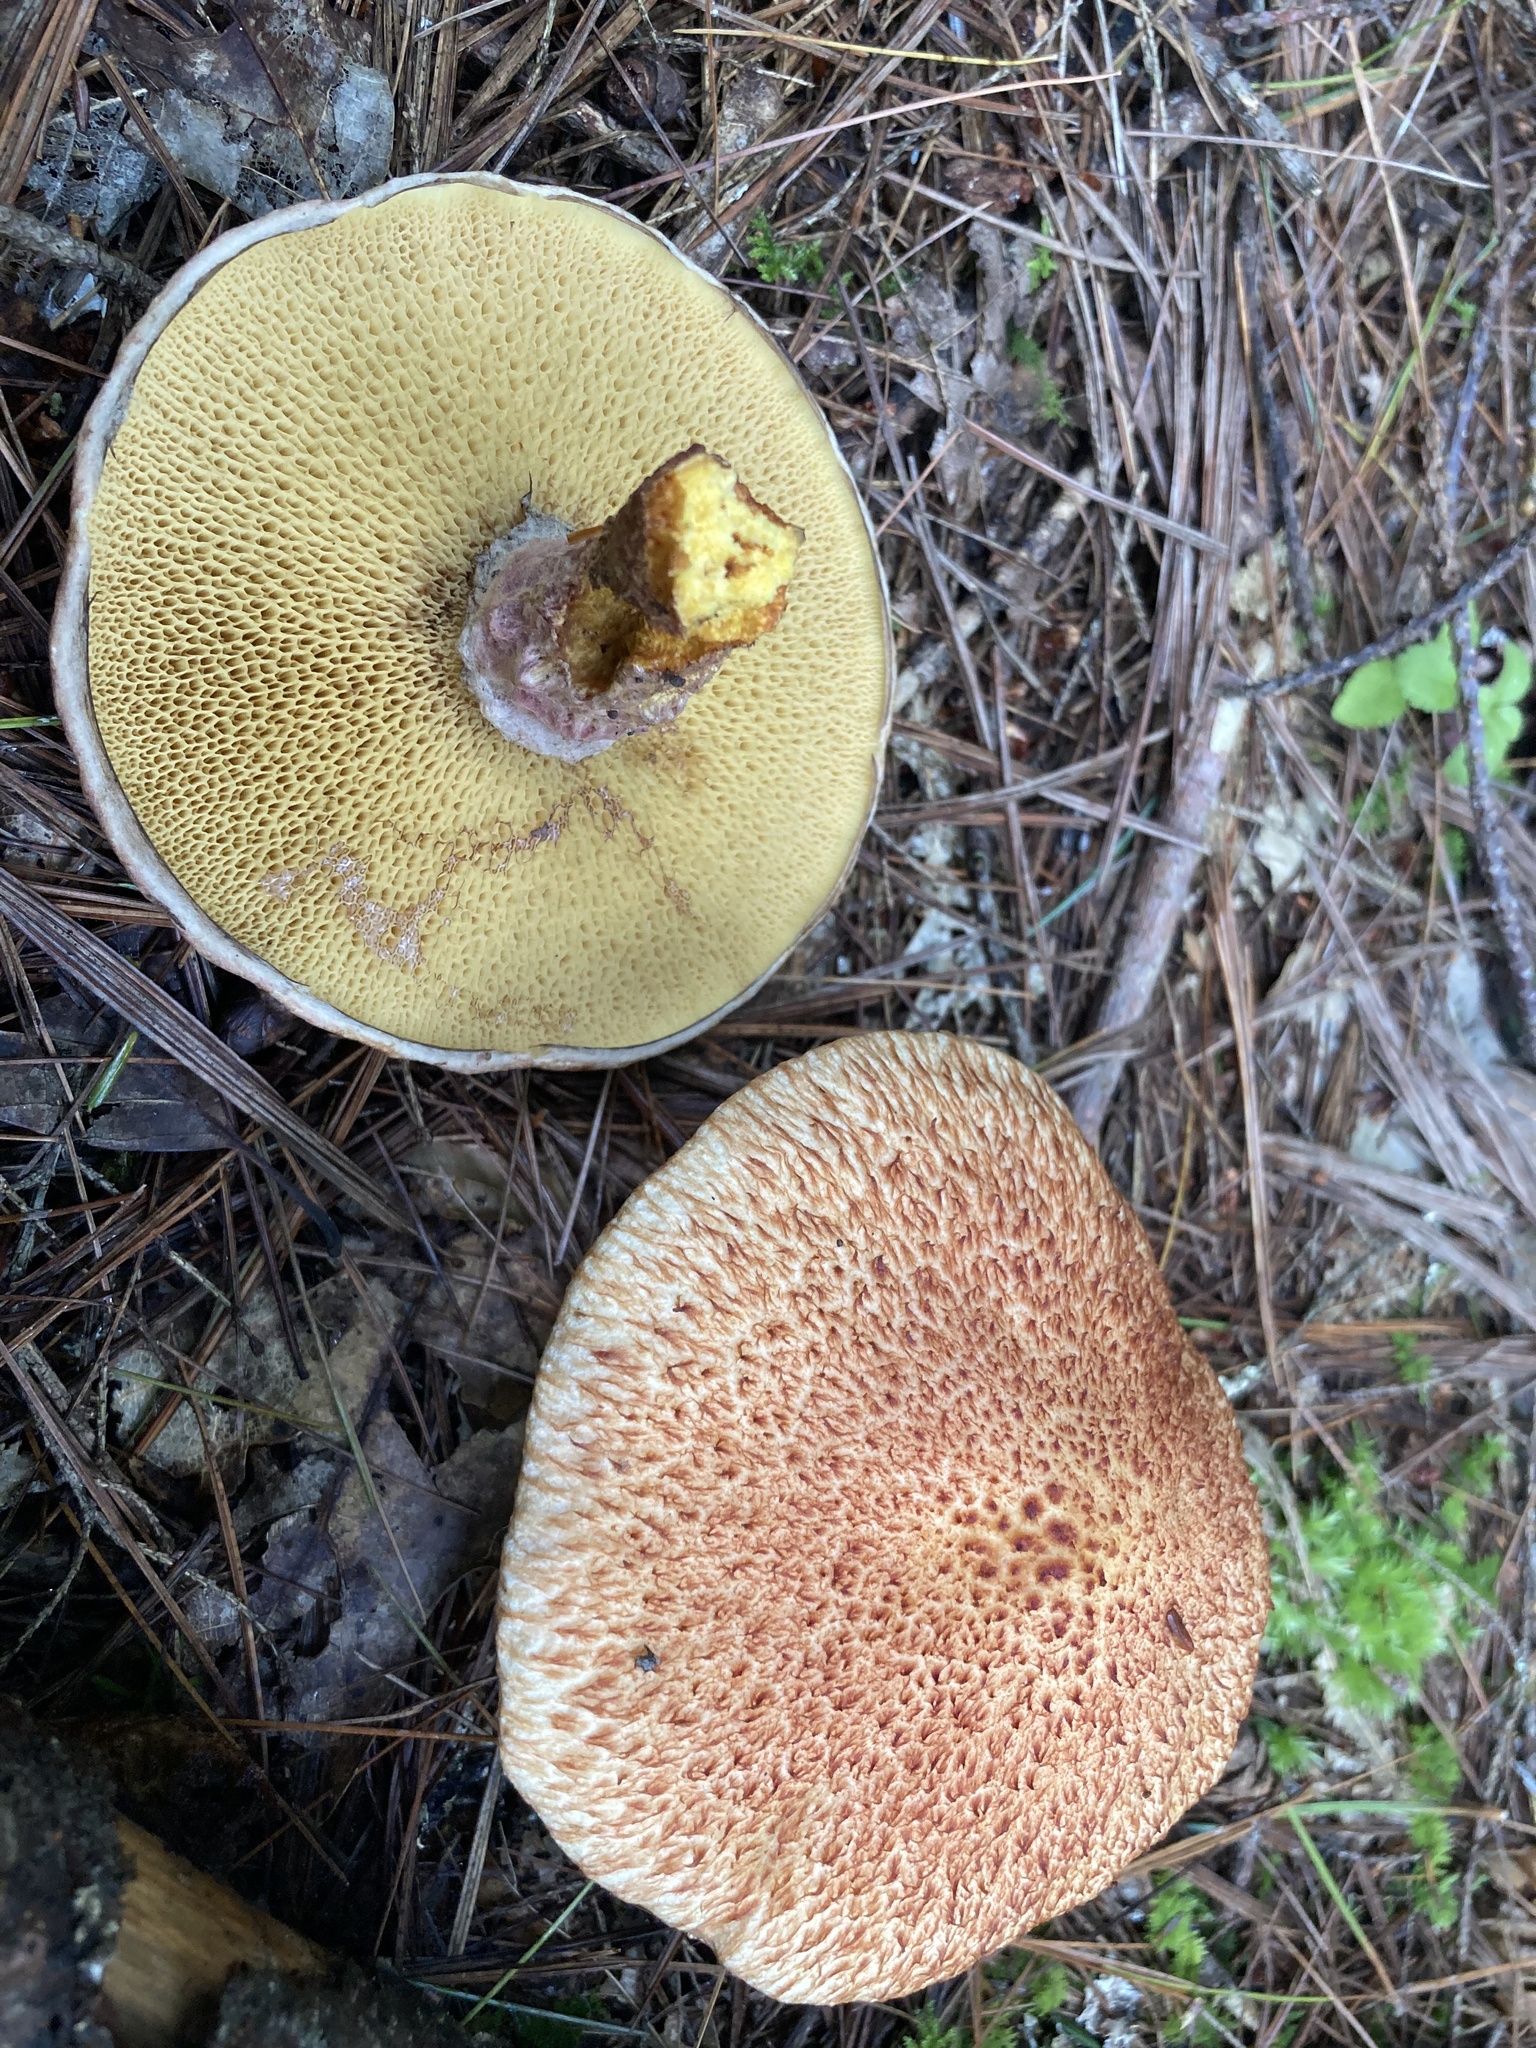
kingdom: Fungi
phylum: Basidiomycota
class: Agaricomycetes
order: Boletales
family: Suillaceae
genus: Suillus
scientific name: Suillus spraguei
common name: Painted suillus
